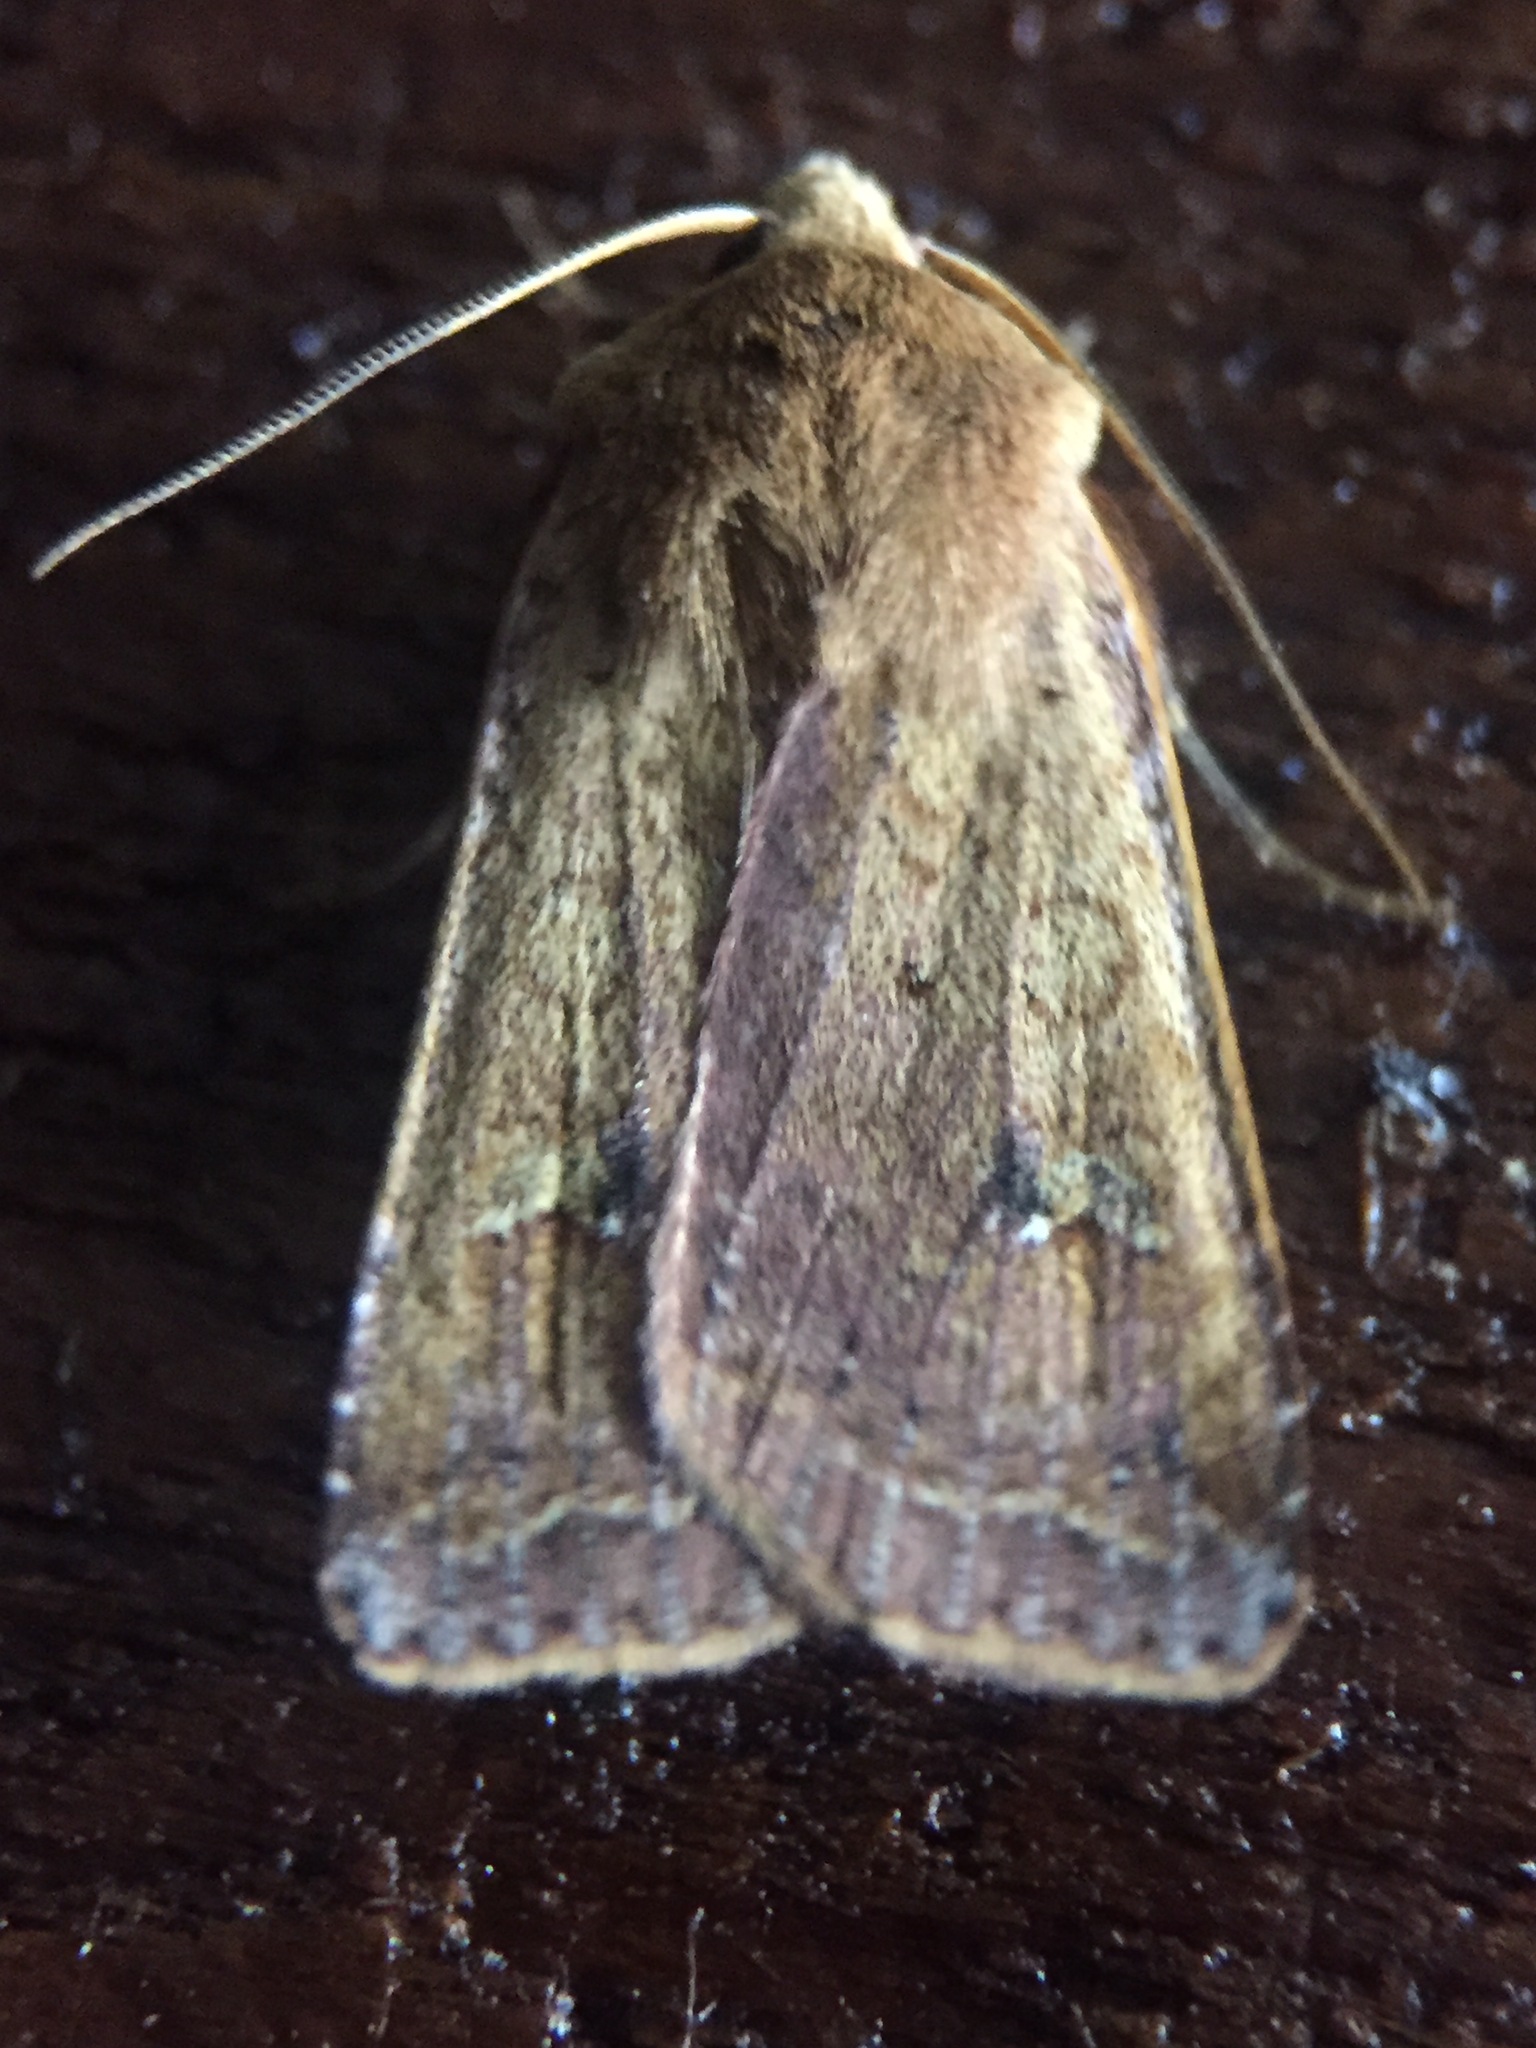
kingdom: Animalia
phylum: Arthropoda
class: Insecta
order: Lepidoptera
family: Noctuidae
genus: Diarsia
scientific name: Diarsia intermixta
